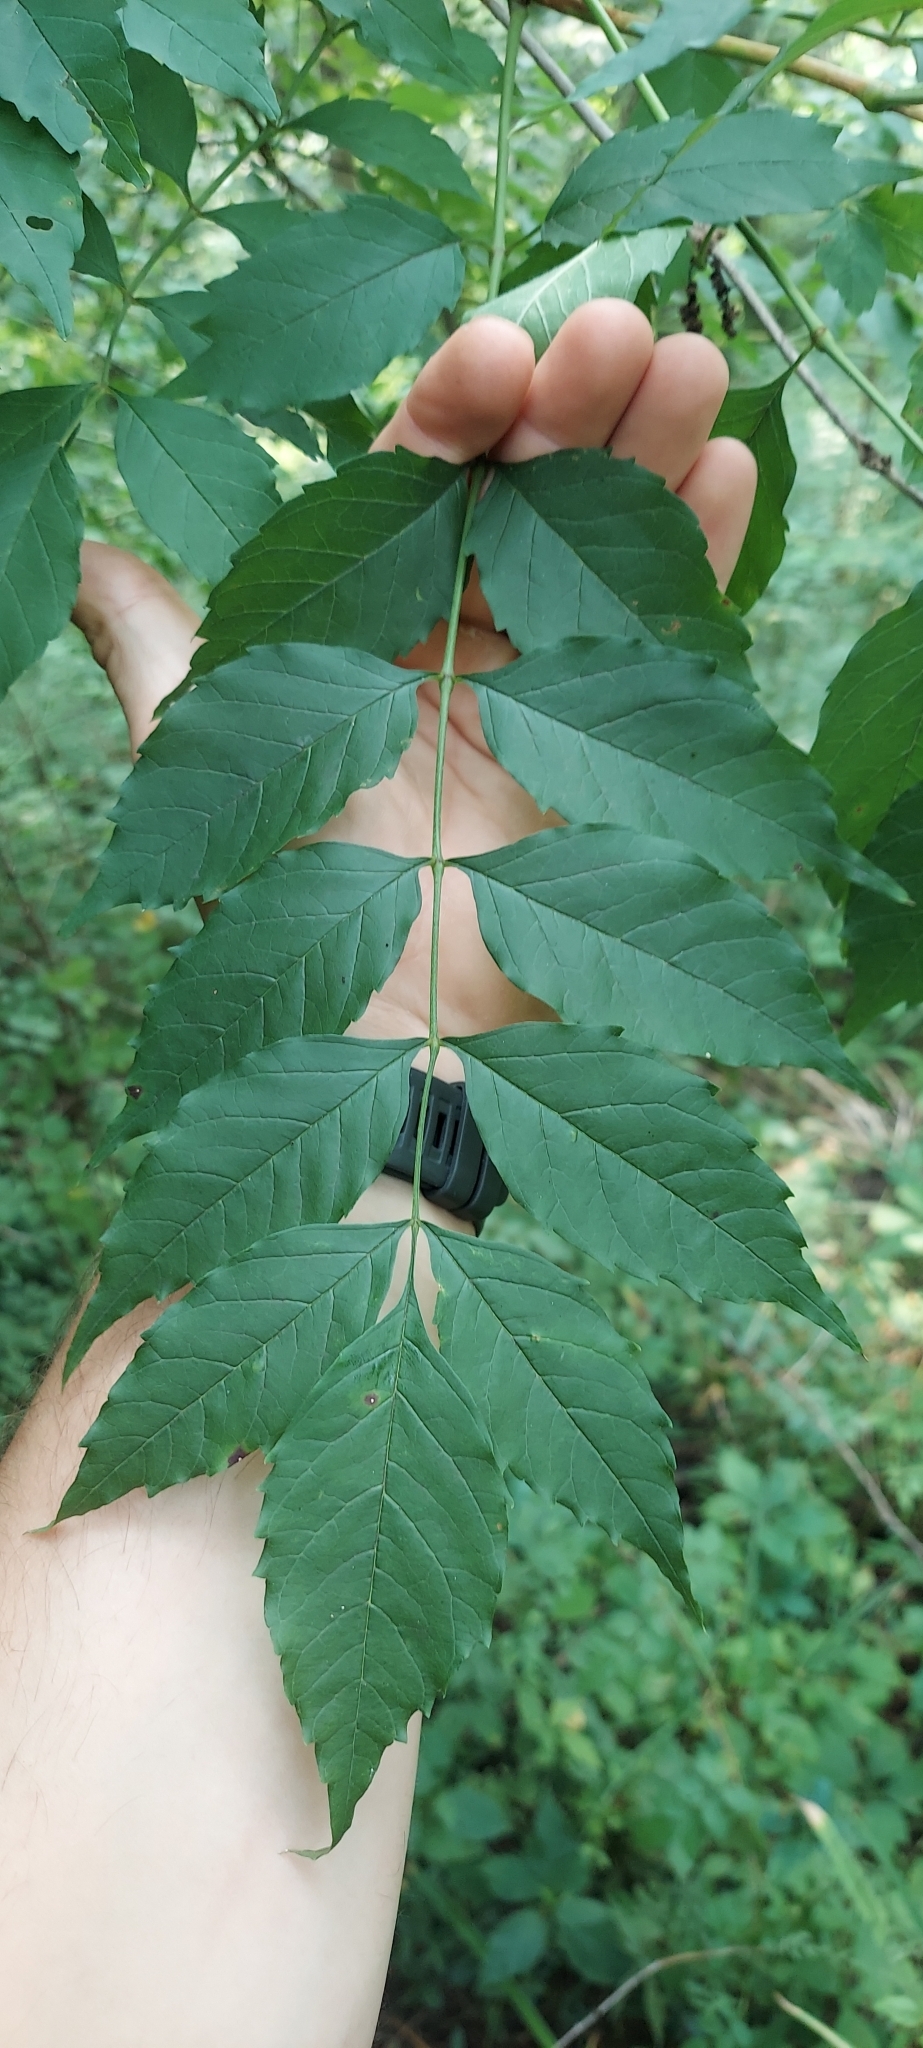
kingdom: Plantae
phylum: Tracheophyta
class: Magnoliopsida
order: Lamiales
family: Bignoniaceae
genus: Campsis
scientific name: Campsis radicans
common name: Trumpet-creeper
